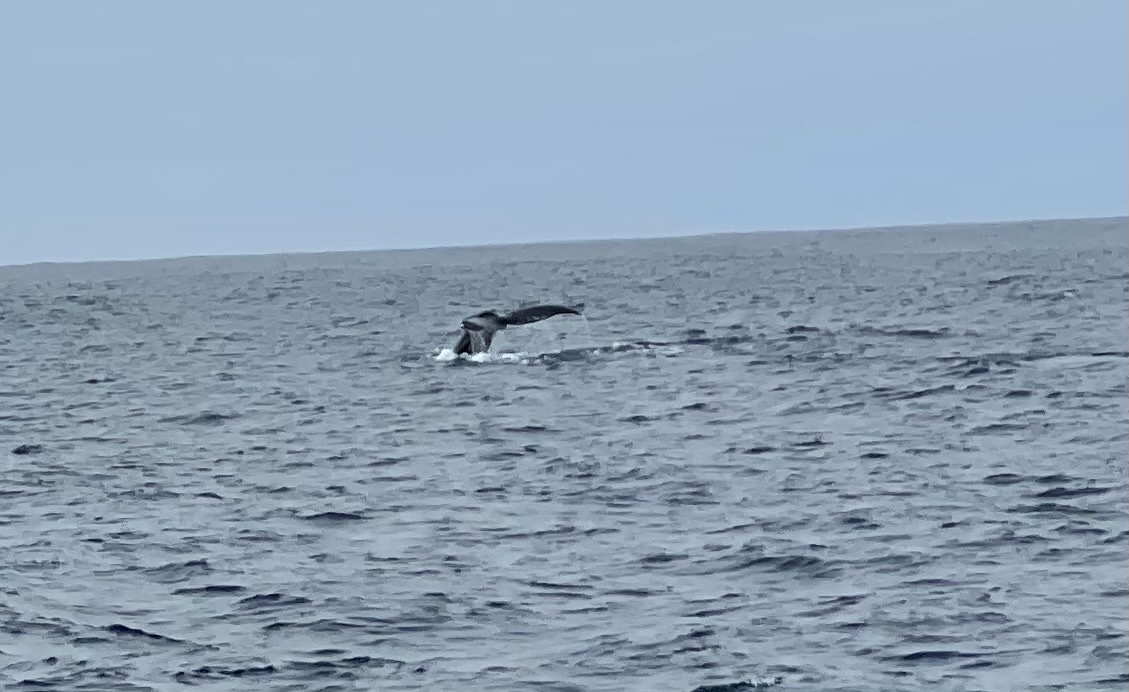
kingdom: Animalia
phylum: Chordata
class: Mammalia
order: Cetacea
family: Balaenopteridae
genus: Megaptera
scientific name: Megaptera novaeangliae
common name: Humpback whale
